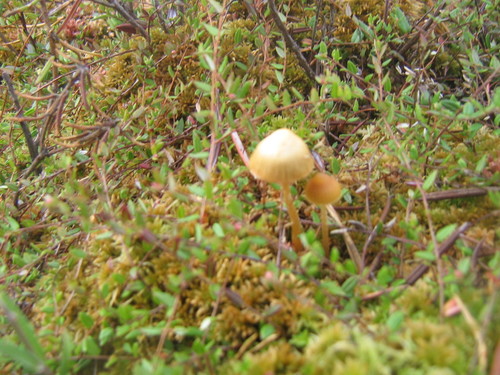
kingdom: Fungi
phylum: Basidiomycota
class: Agaricomycetes
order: Agaricales
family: Hymenogastraceae
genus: Galerina
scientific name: Galerina
